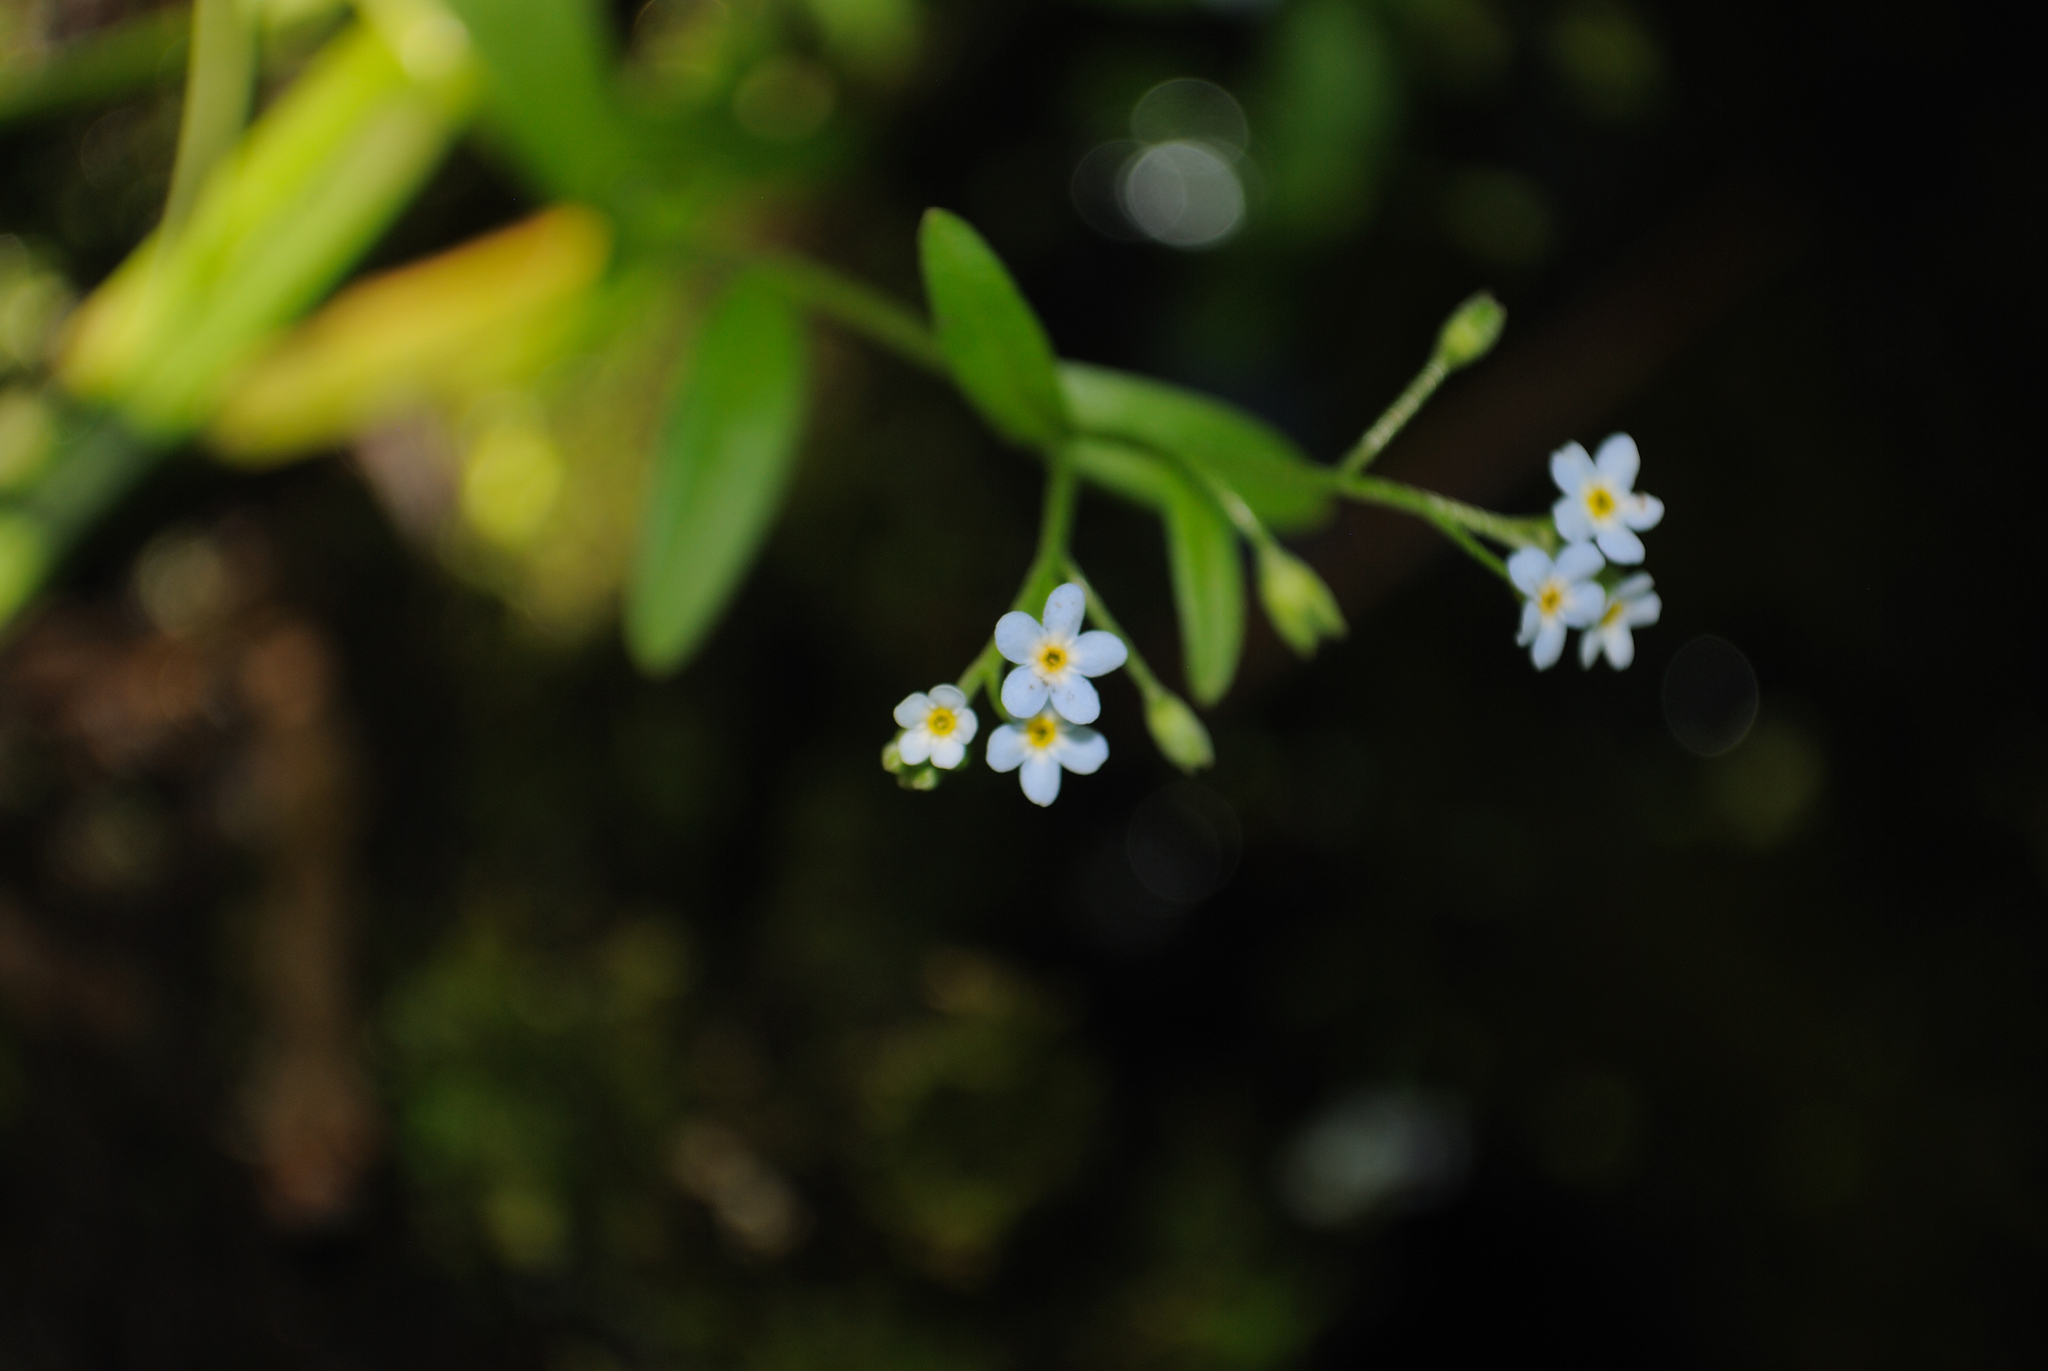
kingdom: Plantae
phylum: Tracheophyta
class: Magnoliopsida
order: Boraginales
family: Boraginaceae
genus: Myosotis
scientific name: Myosotis laxa
